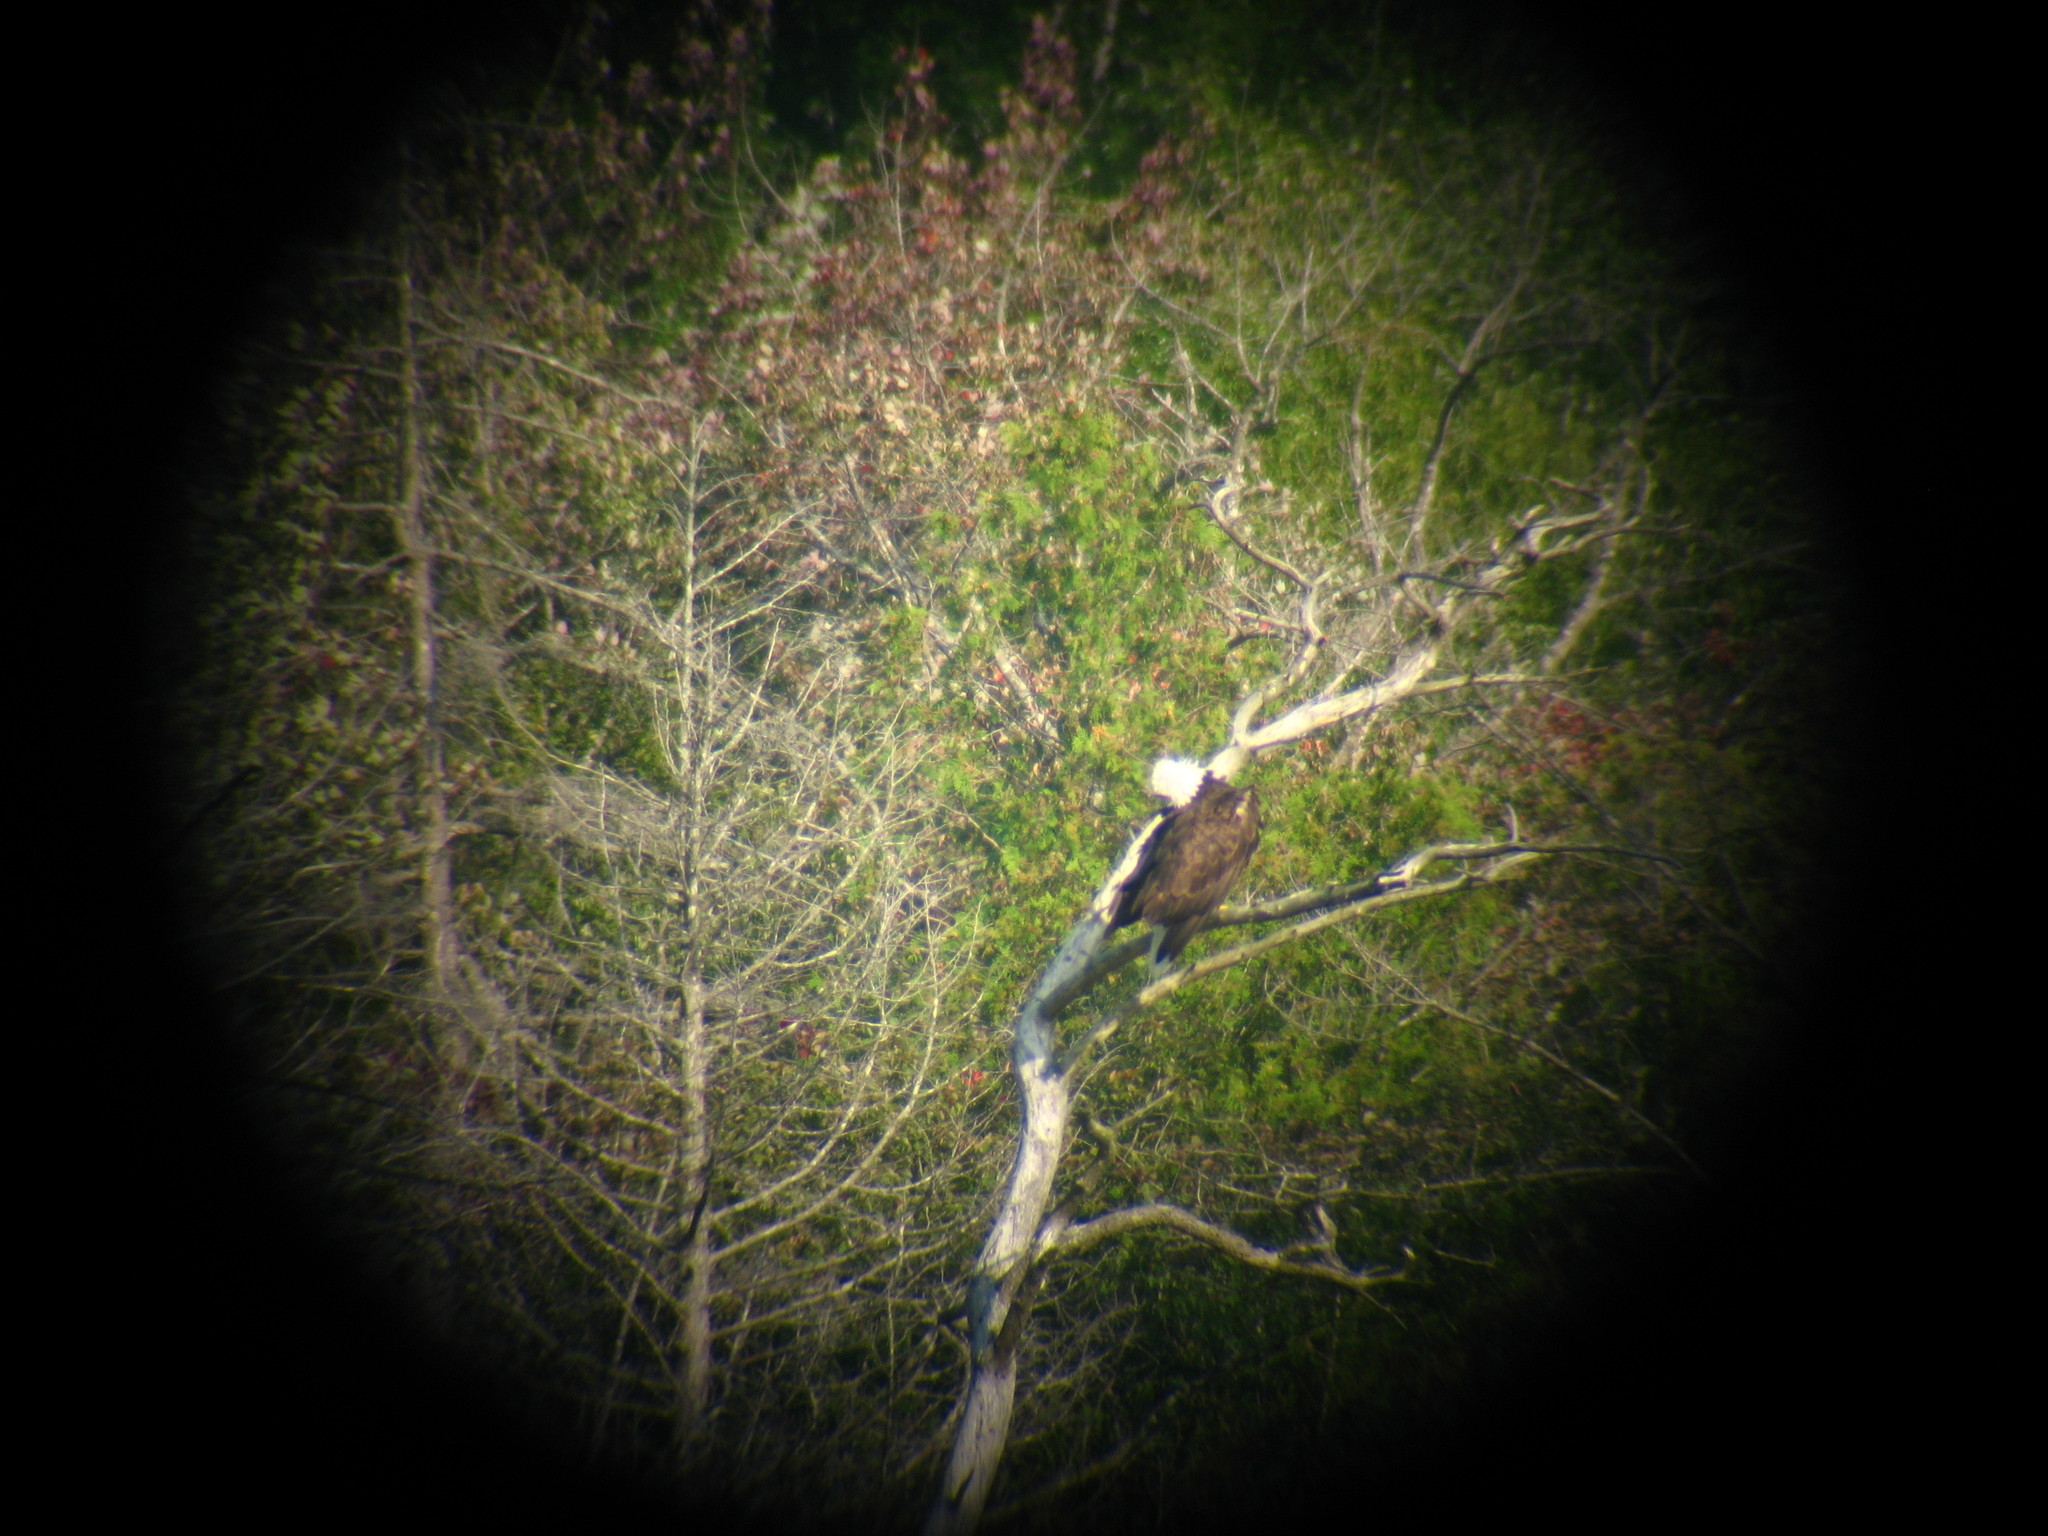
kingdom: Animalia
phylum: Chordata
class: Aves
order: Accipitriformes
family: Accipitridae
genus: Haliaeetus
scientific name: Haliaeetus leucocephalus
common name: Bald eagle
